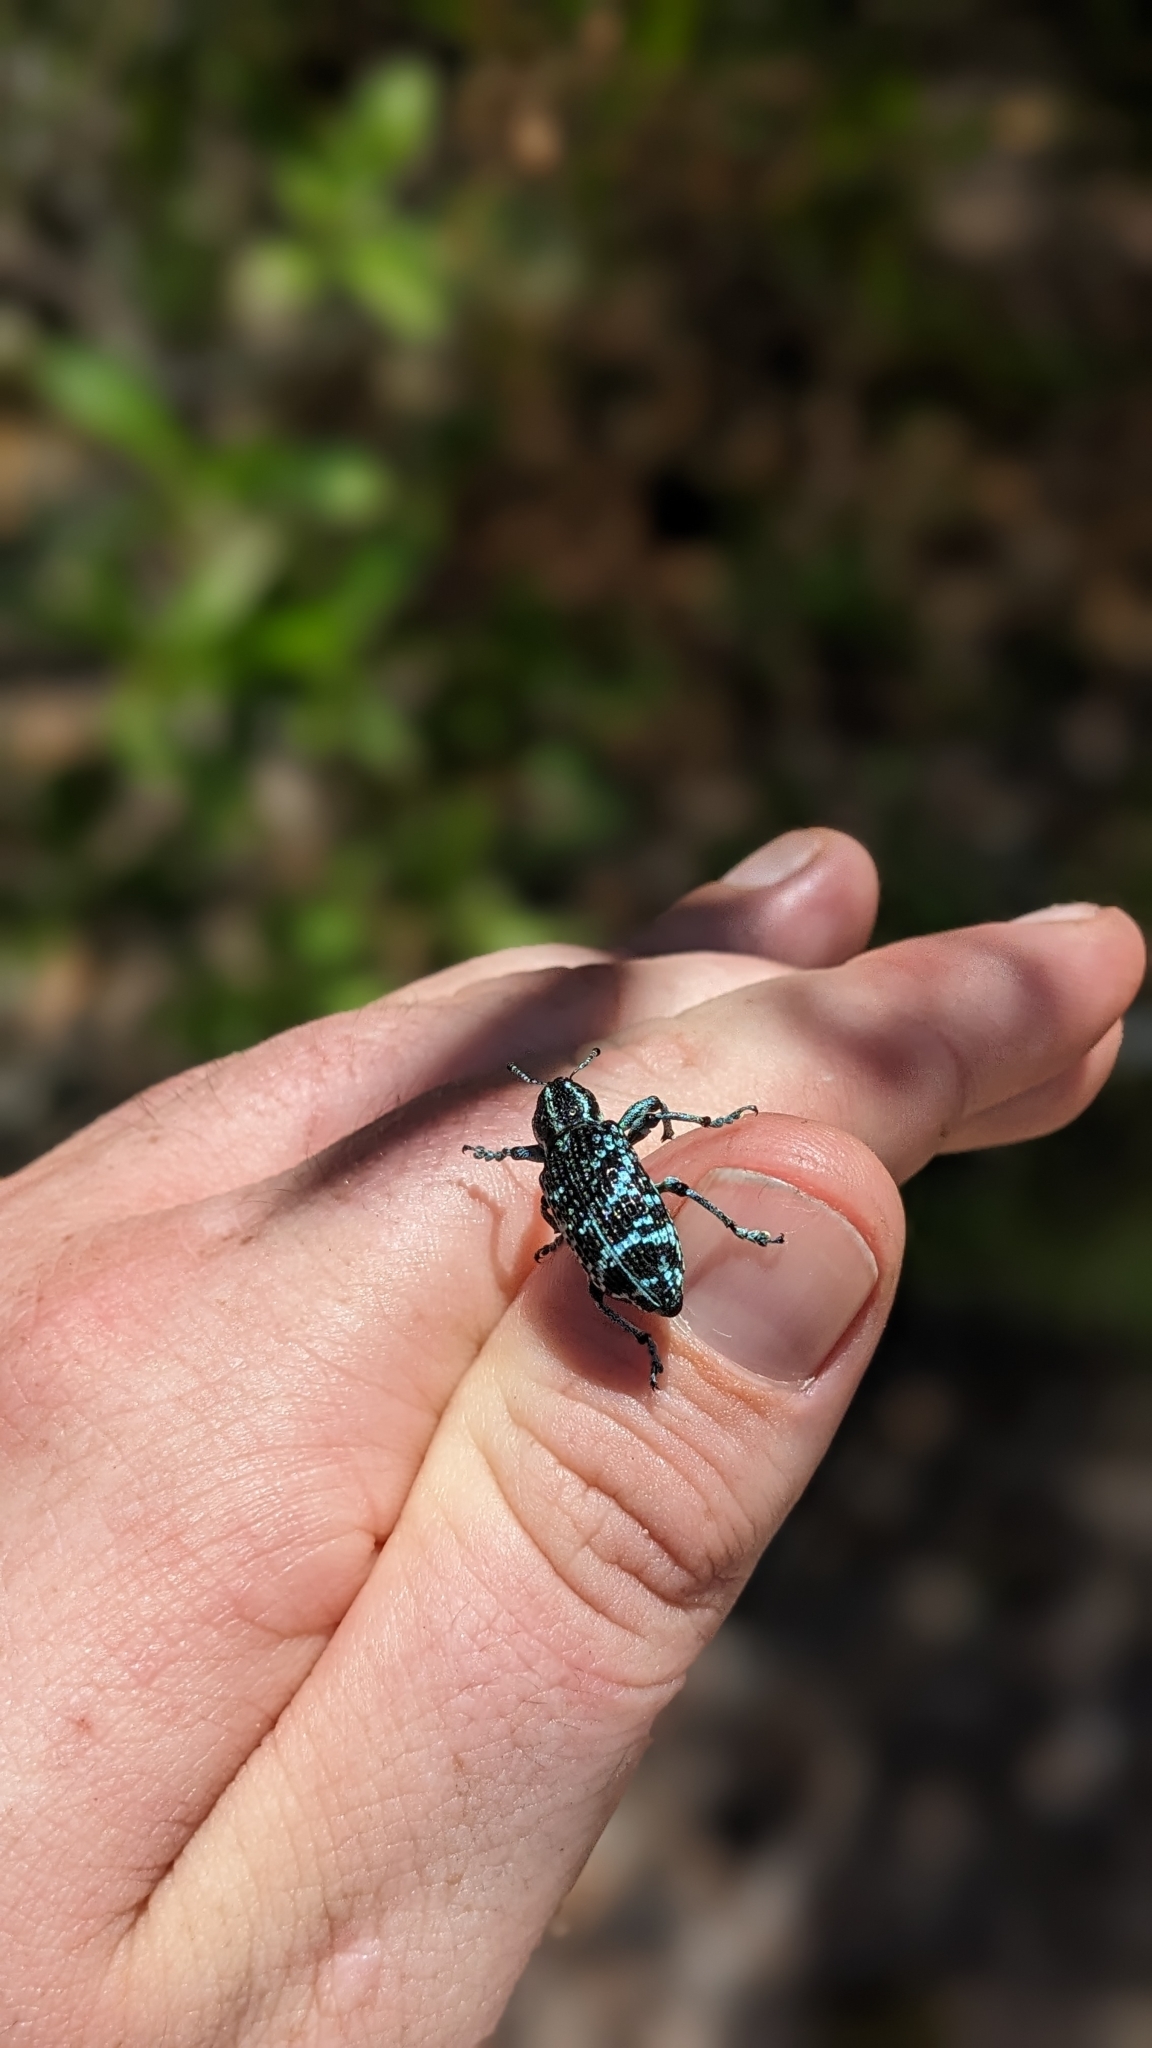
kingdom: Animalia
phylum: Arthropoda
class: Insecta
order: Coleoptera
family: Curculionidae
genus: Chrysolopus
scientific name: Chrysolopus spectabilis
